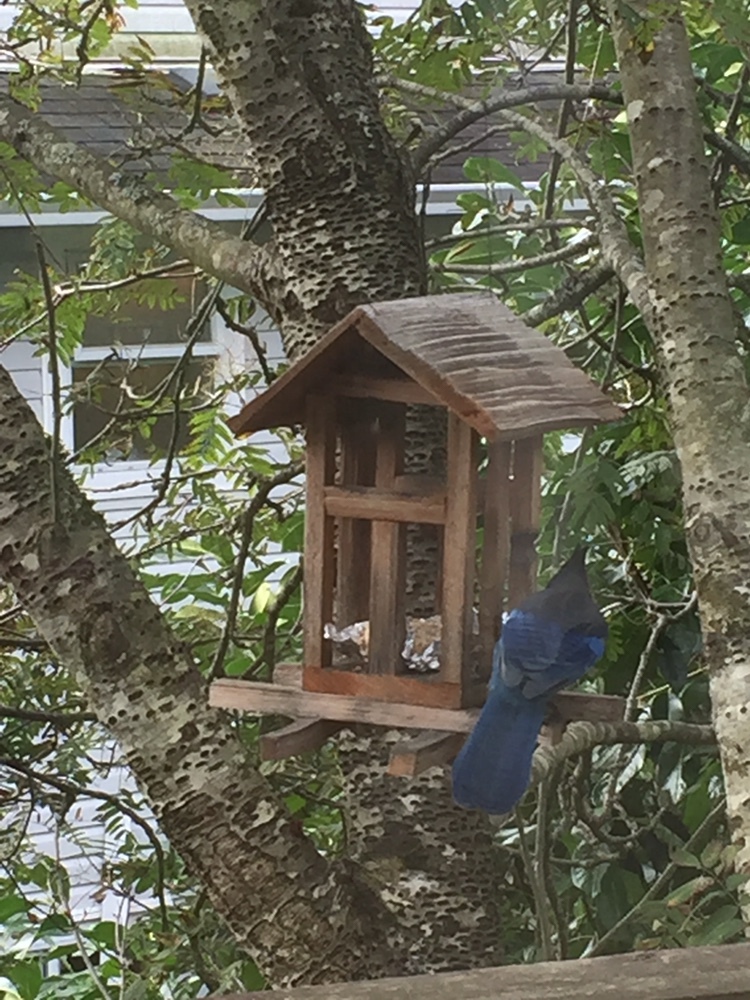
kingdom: Animalia
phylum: Chordata
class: Aves
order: Passeriformes
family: Corvidae
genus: Cyanocitta
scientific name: Cyanocitta stelleri
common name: Steller's jay
